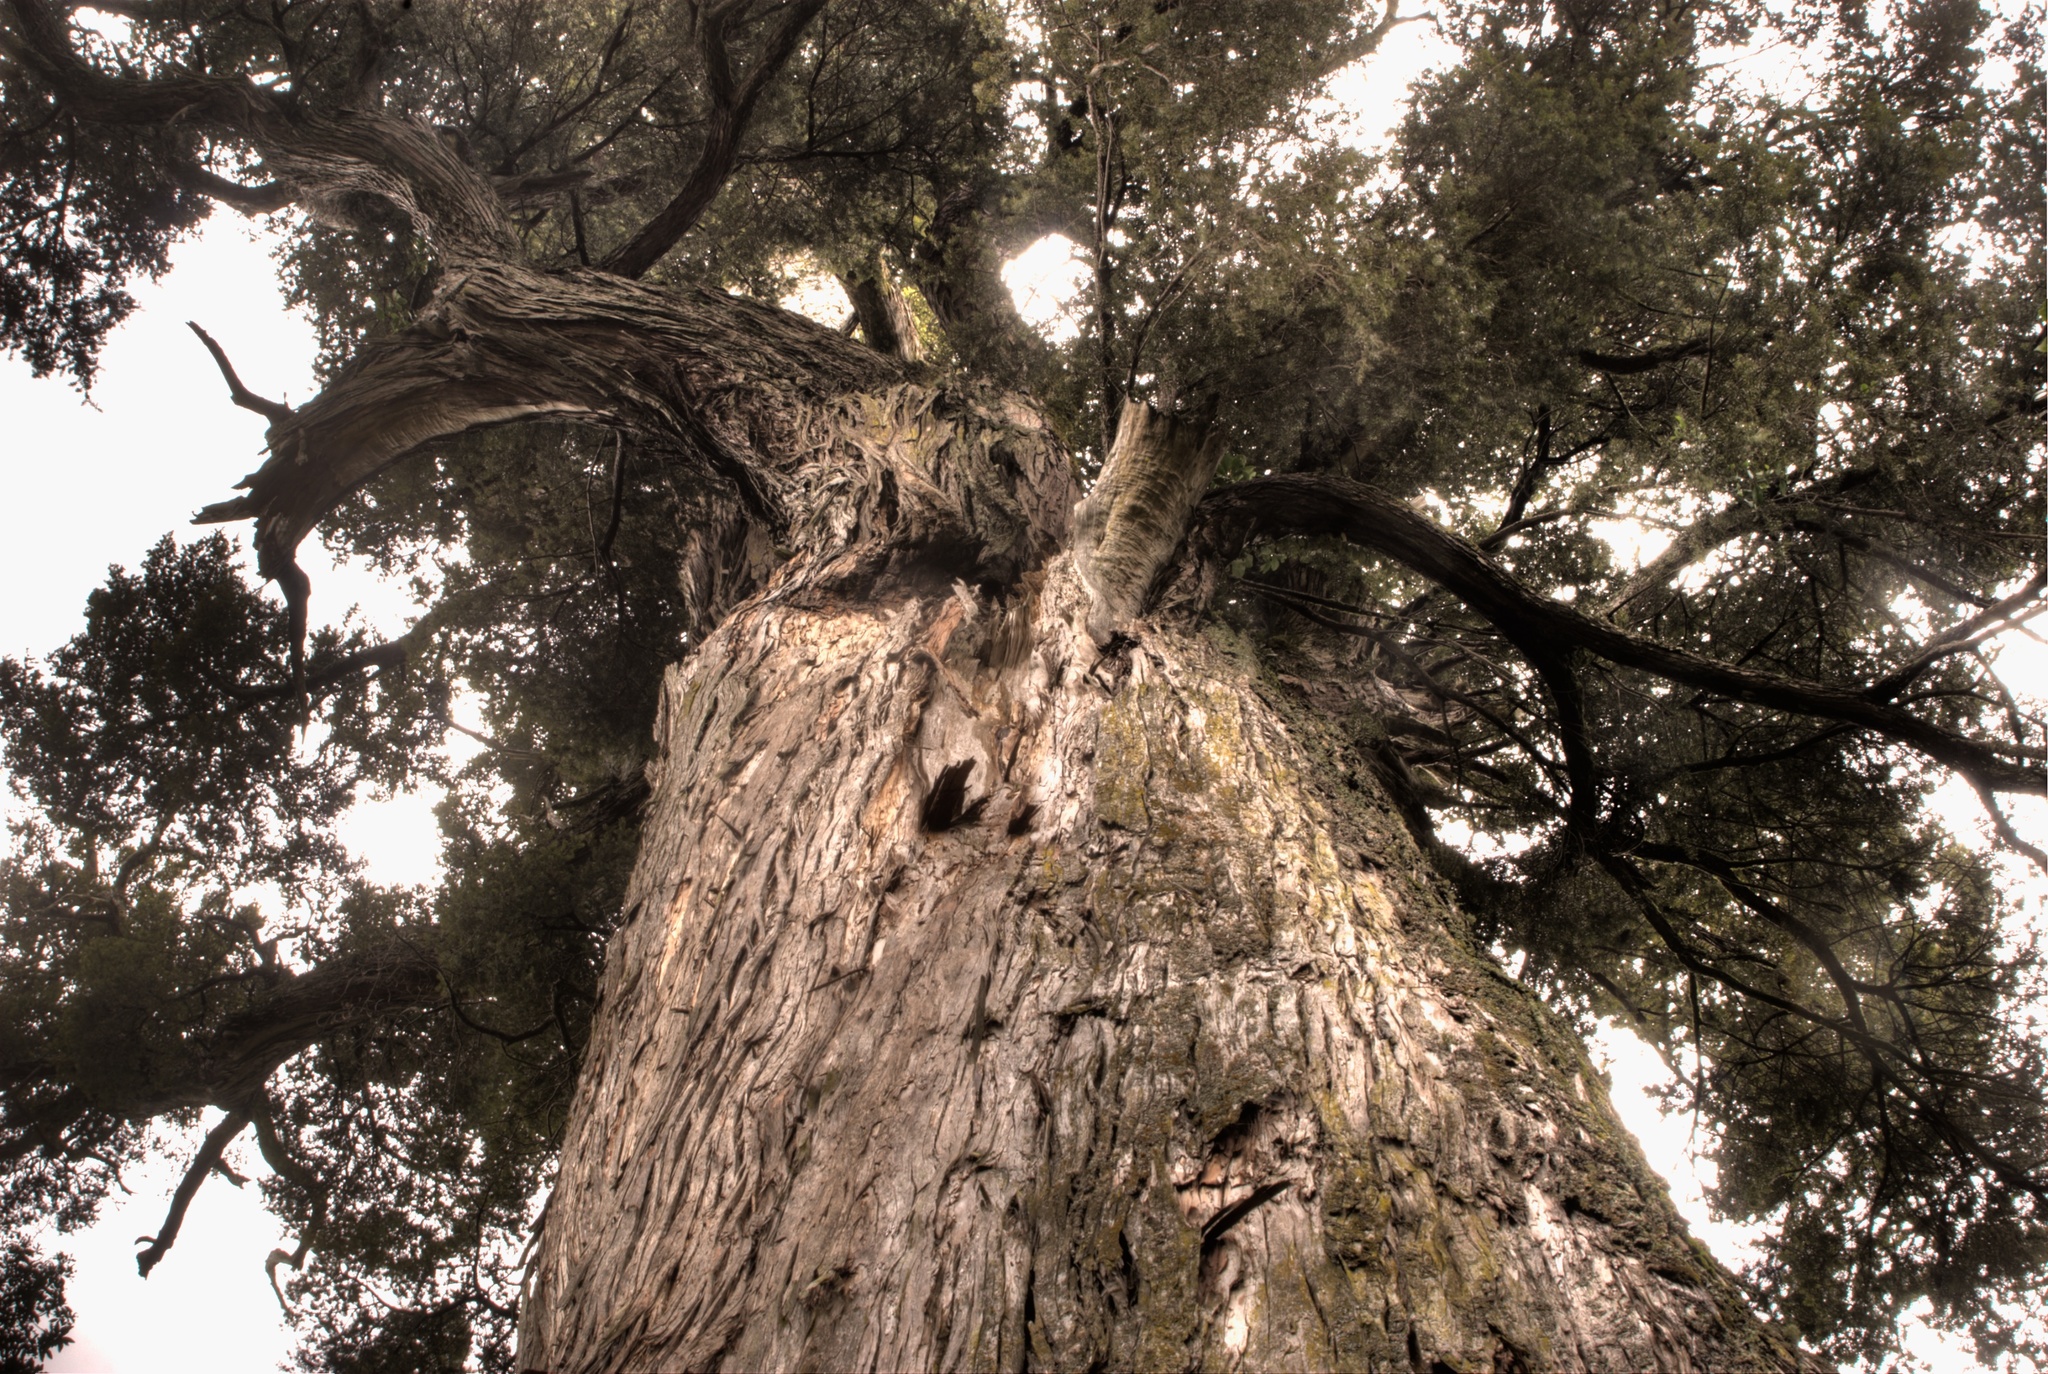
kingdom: Plantae
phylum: Tracheophyta
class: Pinopsida
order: Pinales
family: Podocarpaceae
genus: Podocarpus
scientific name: Podocarpus totara
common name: Totara
